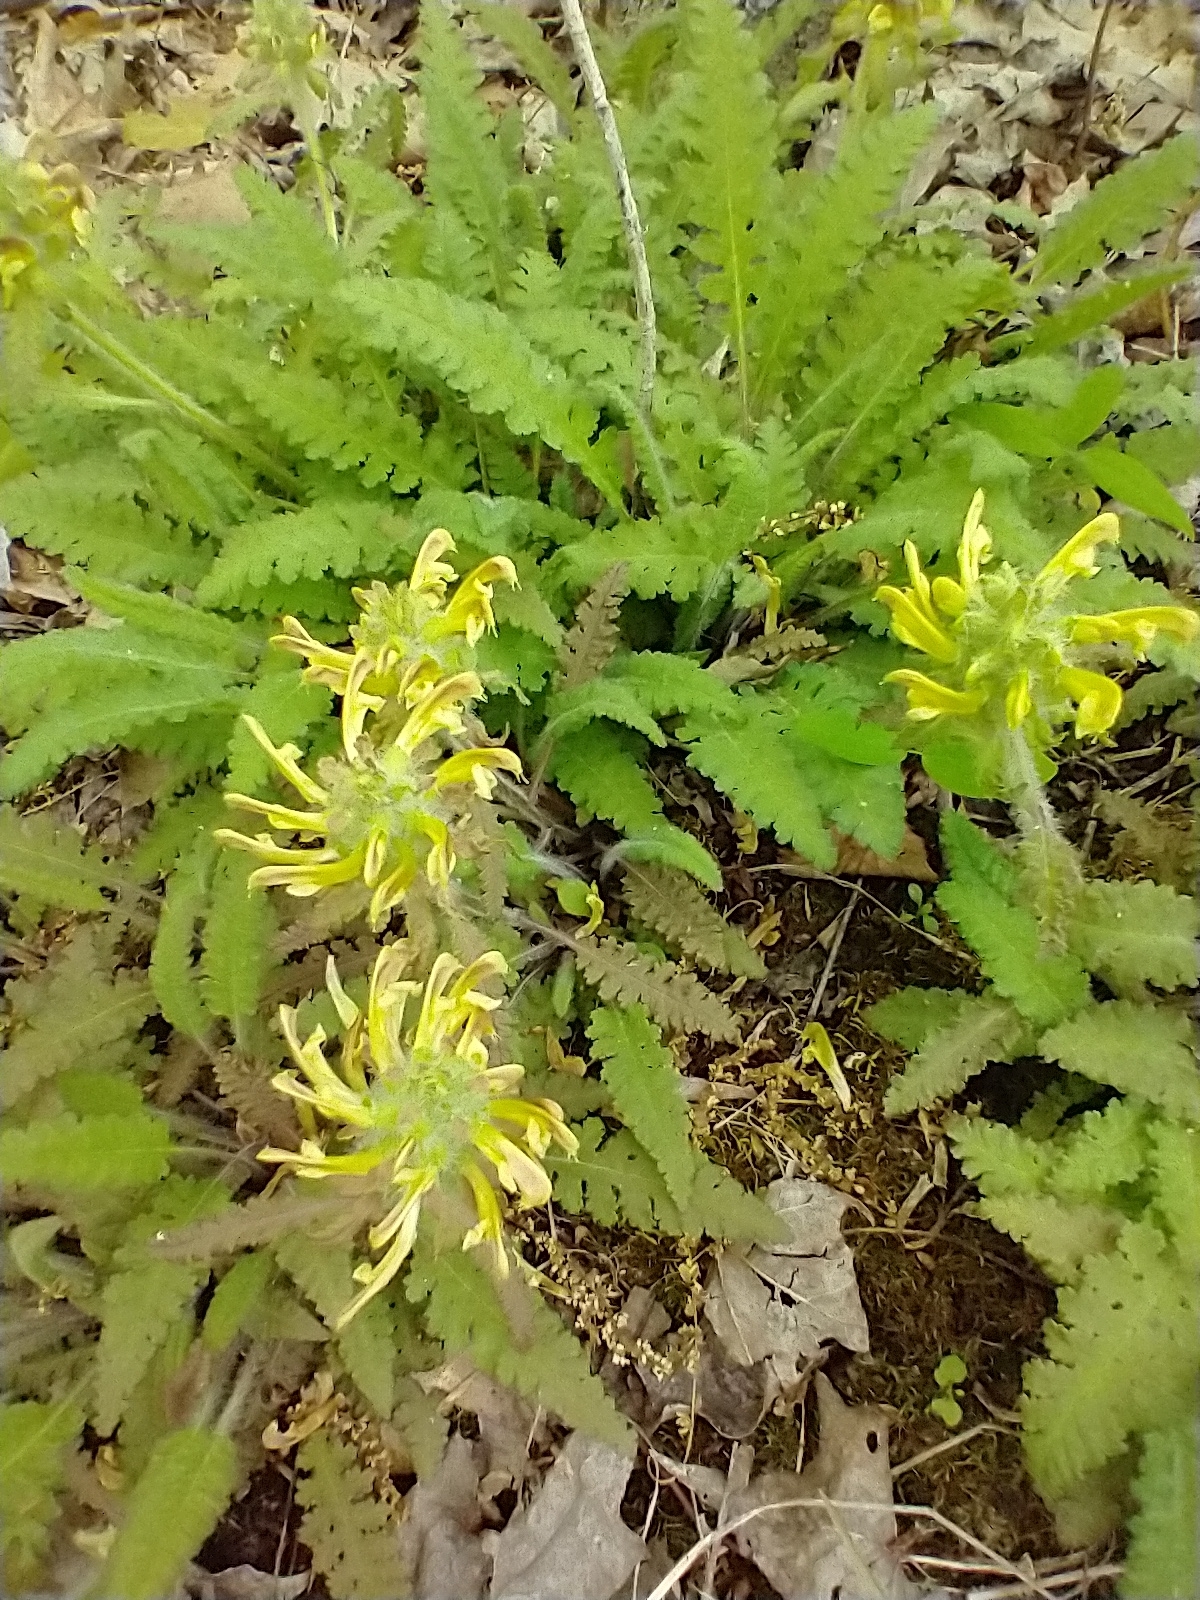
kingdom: Plantae
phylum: Tracheophyta
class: Magnoliopsida
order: Lamiales
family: Orobanchaceae
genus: Pedicularis
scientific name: Pedicularis canadensis
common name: Early lousewort
